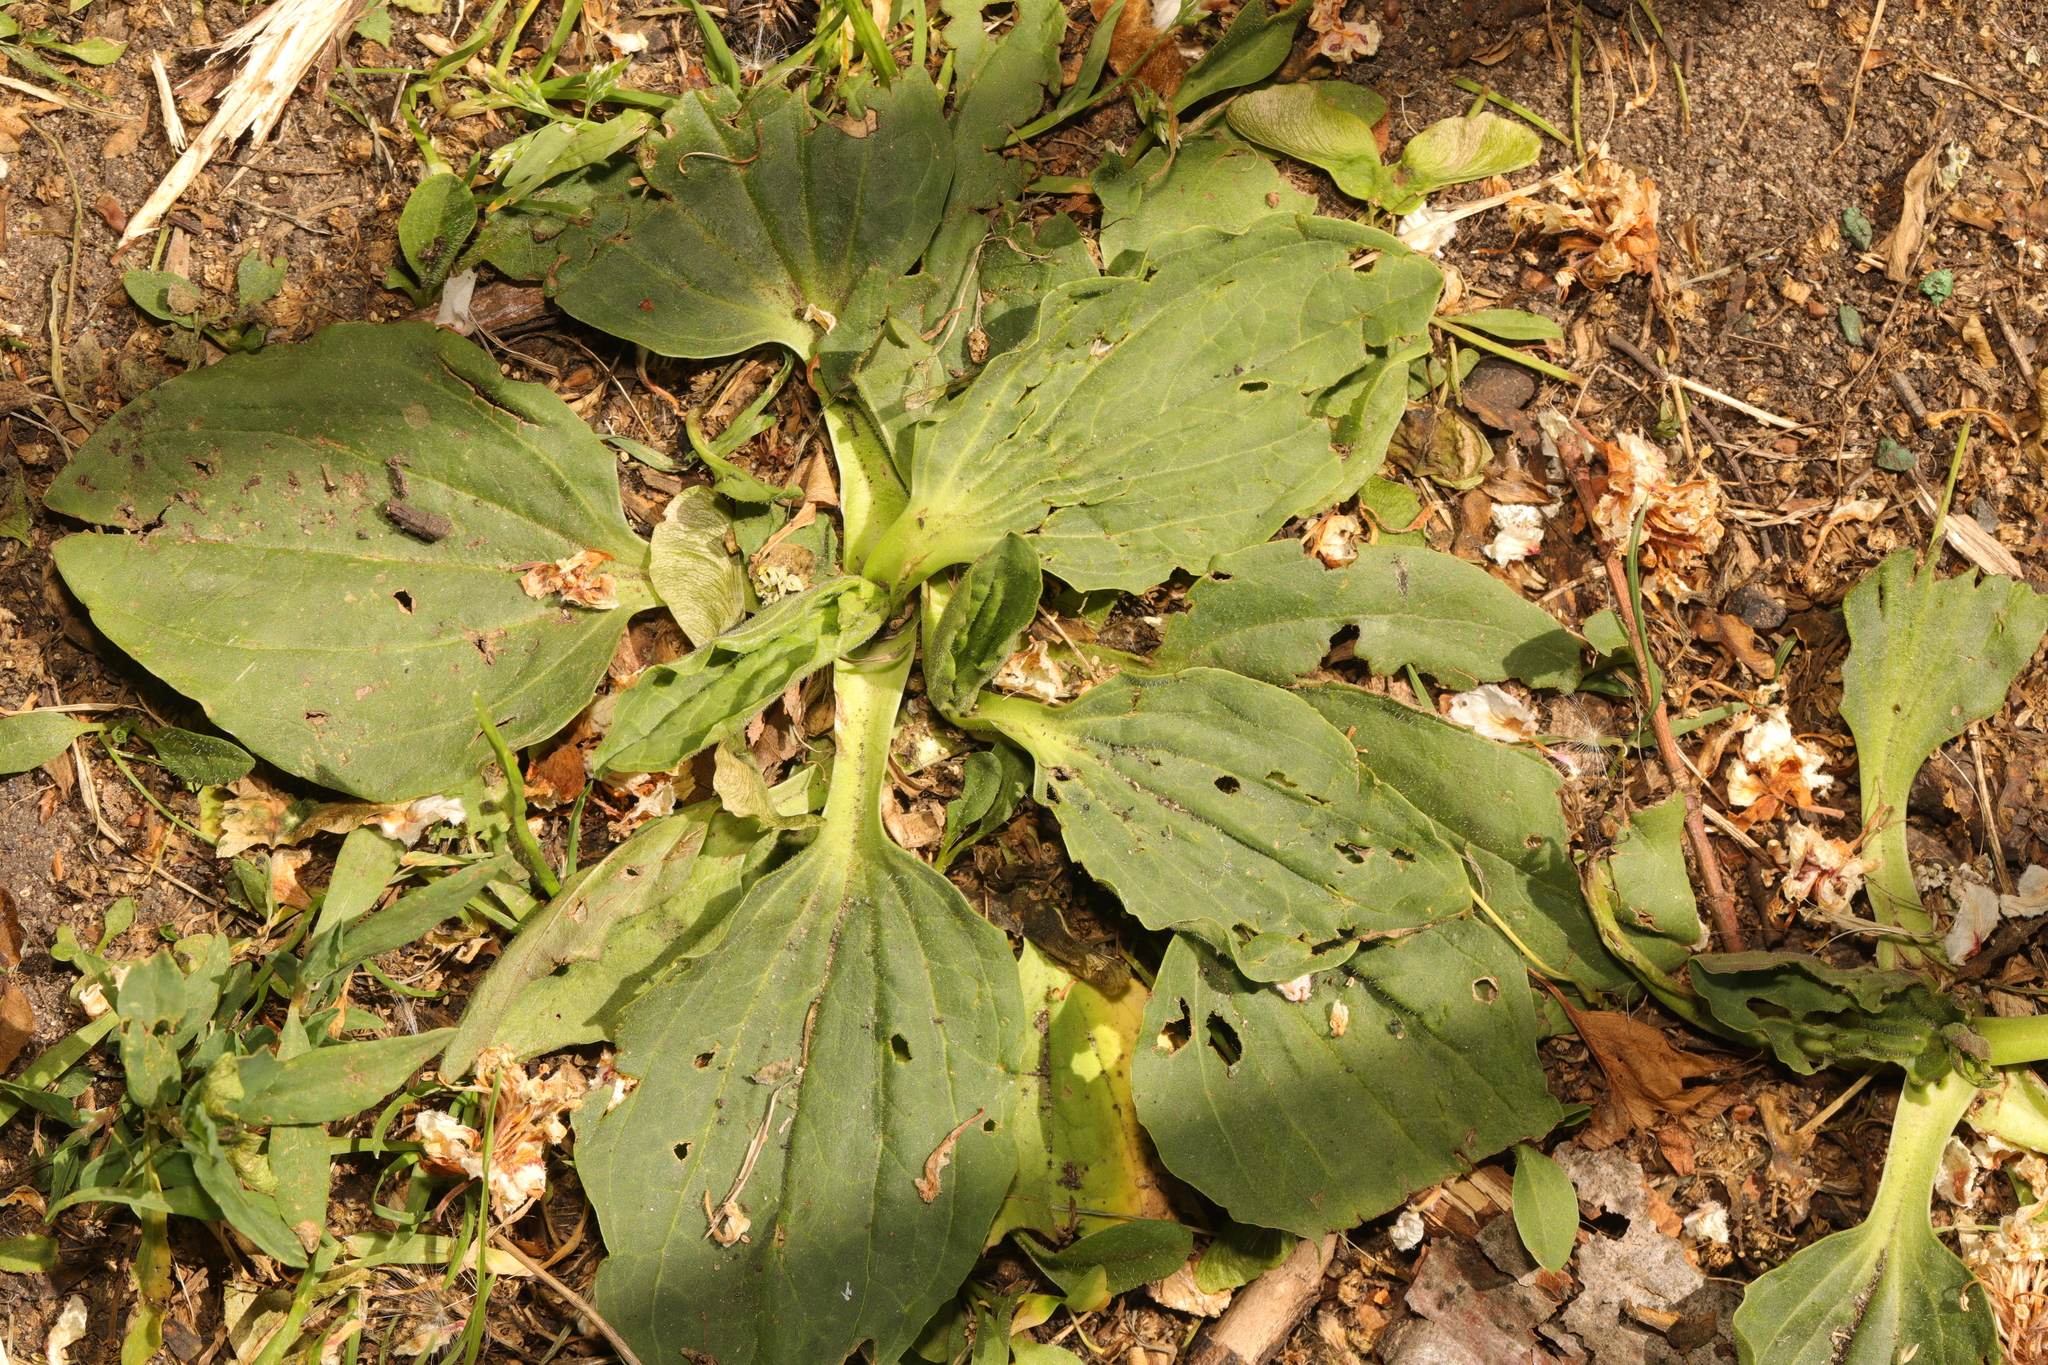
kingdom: Plantae
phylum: Tracheophyta
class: Magnoliopsida
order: Lamiales
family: Plantaginaceae
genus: Plantago
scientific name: Plantago major
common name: Common plantain
